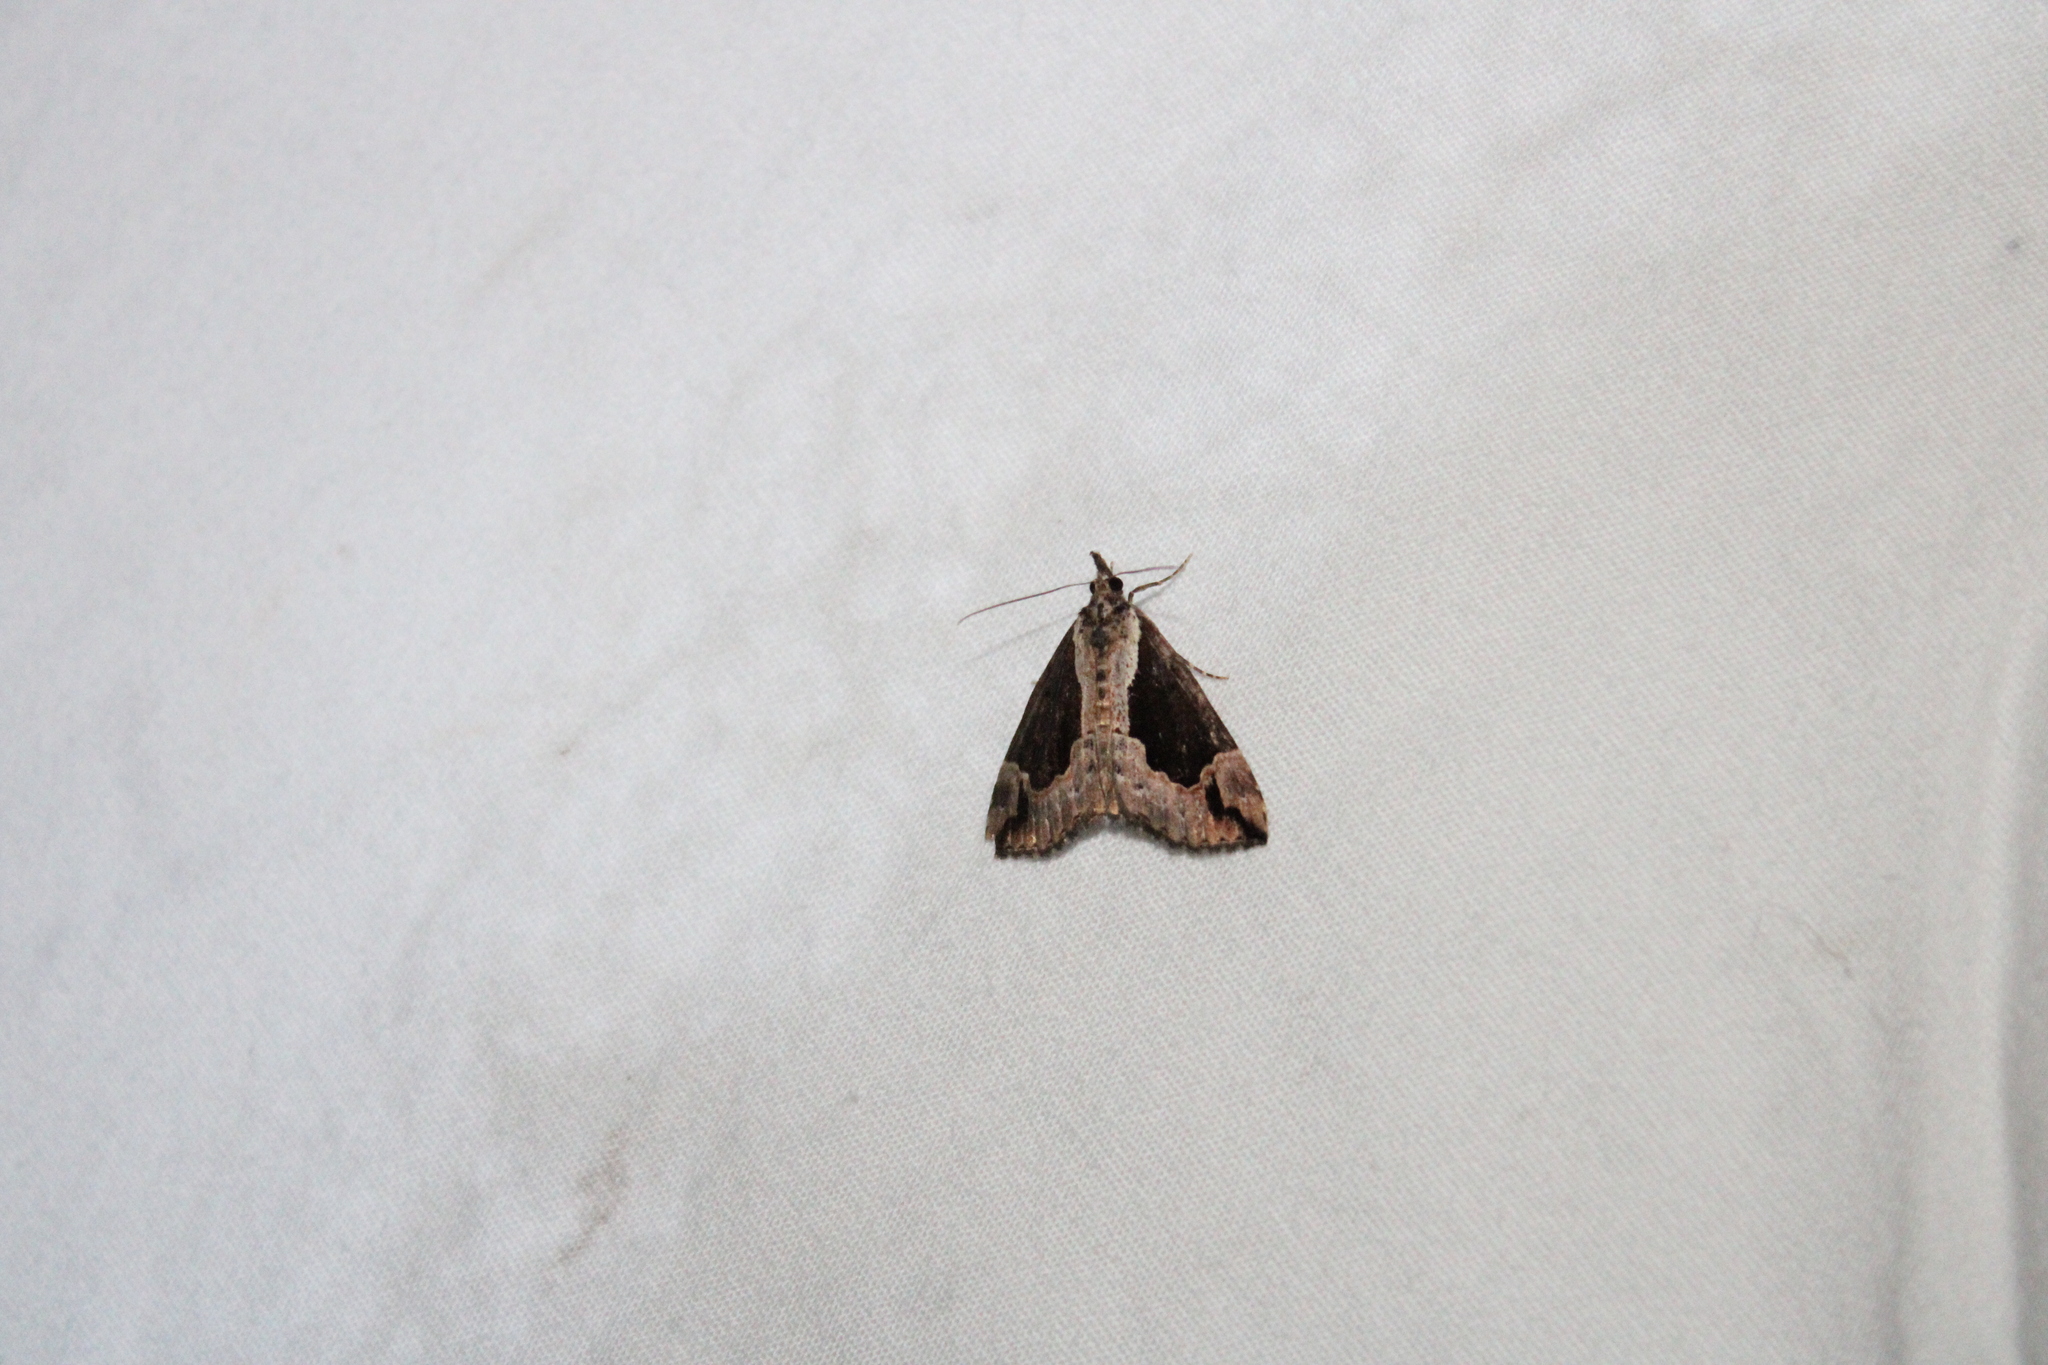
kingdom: Animalia
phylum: Arthropoda
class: Insecta
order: Lepidoptera
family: Erebidae
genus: Hypena
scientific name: Hypena baltimoralis
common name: Baltimore snout
